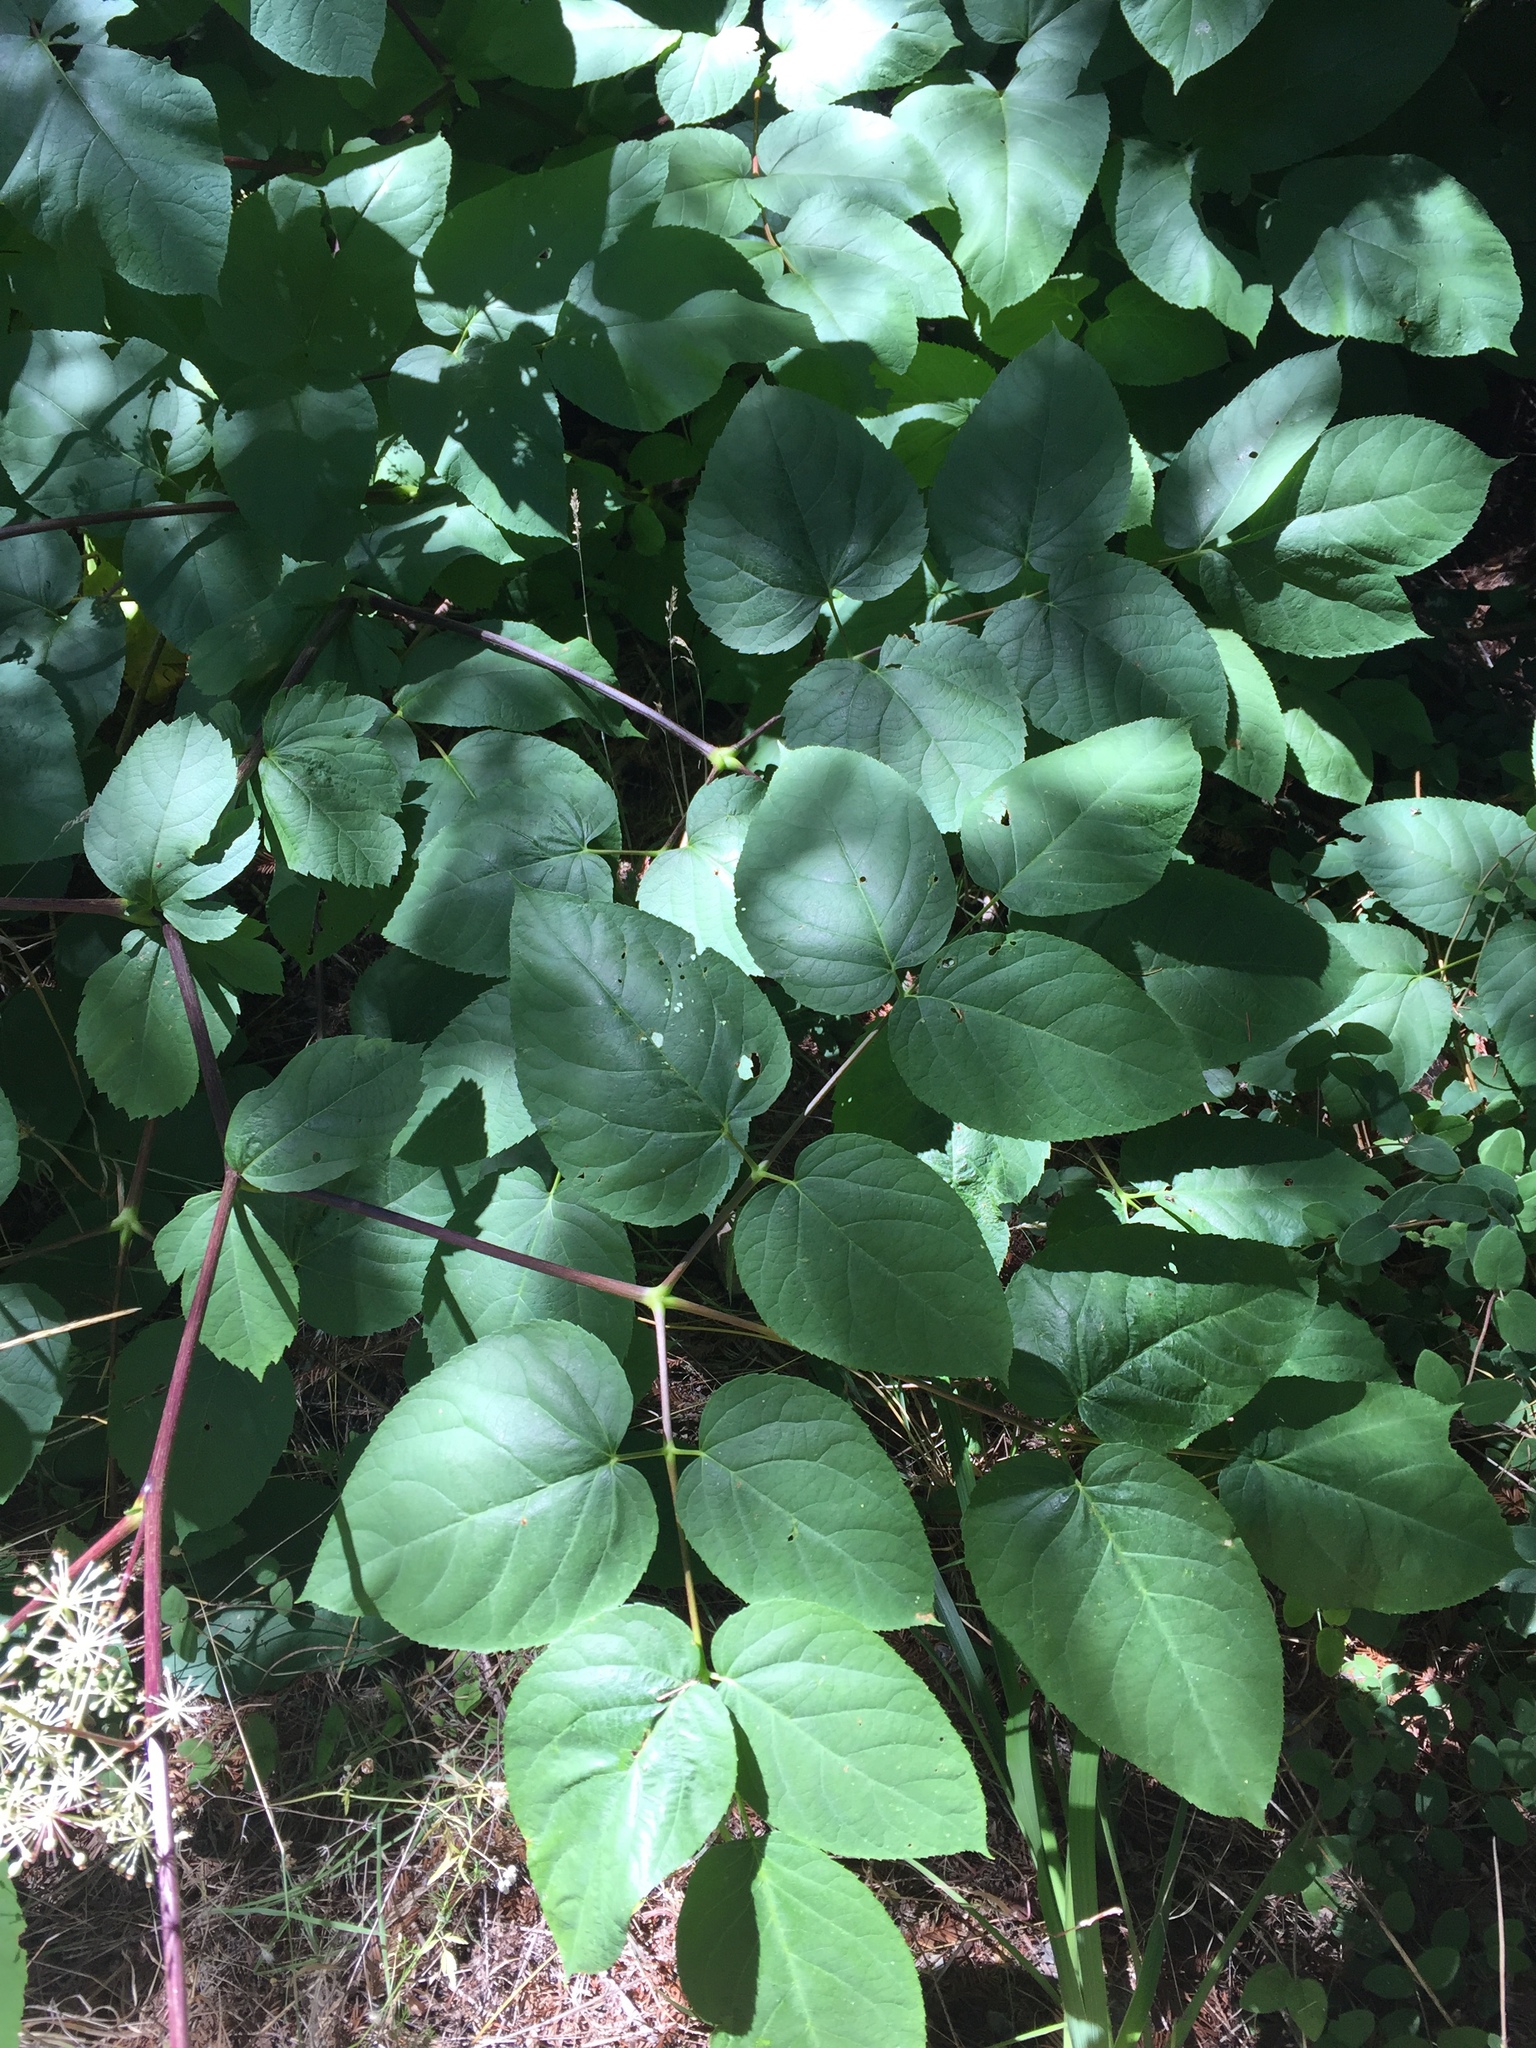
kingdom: Plantae
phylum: Tracheophyta
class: Magnoliopsida
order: Apiales
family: Araliaceae
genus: Aralia
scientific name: Aralia californica
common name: California-ginseng
